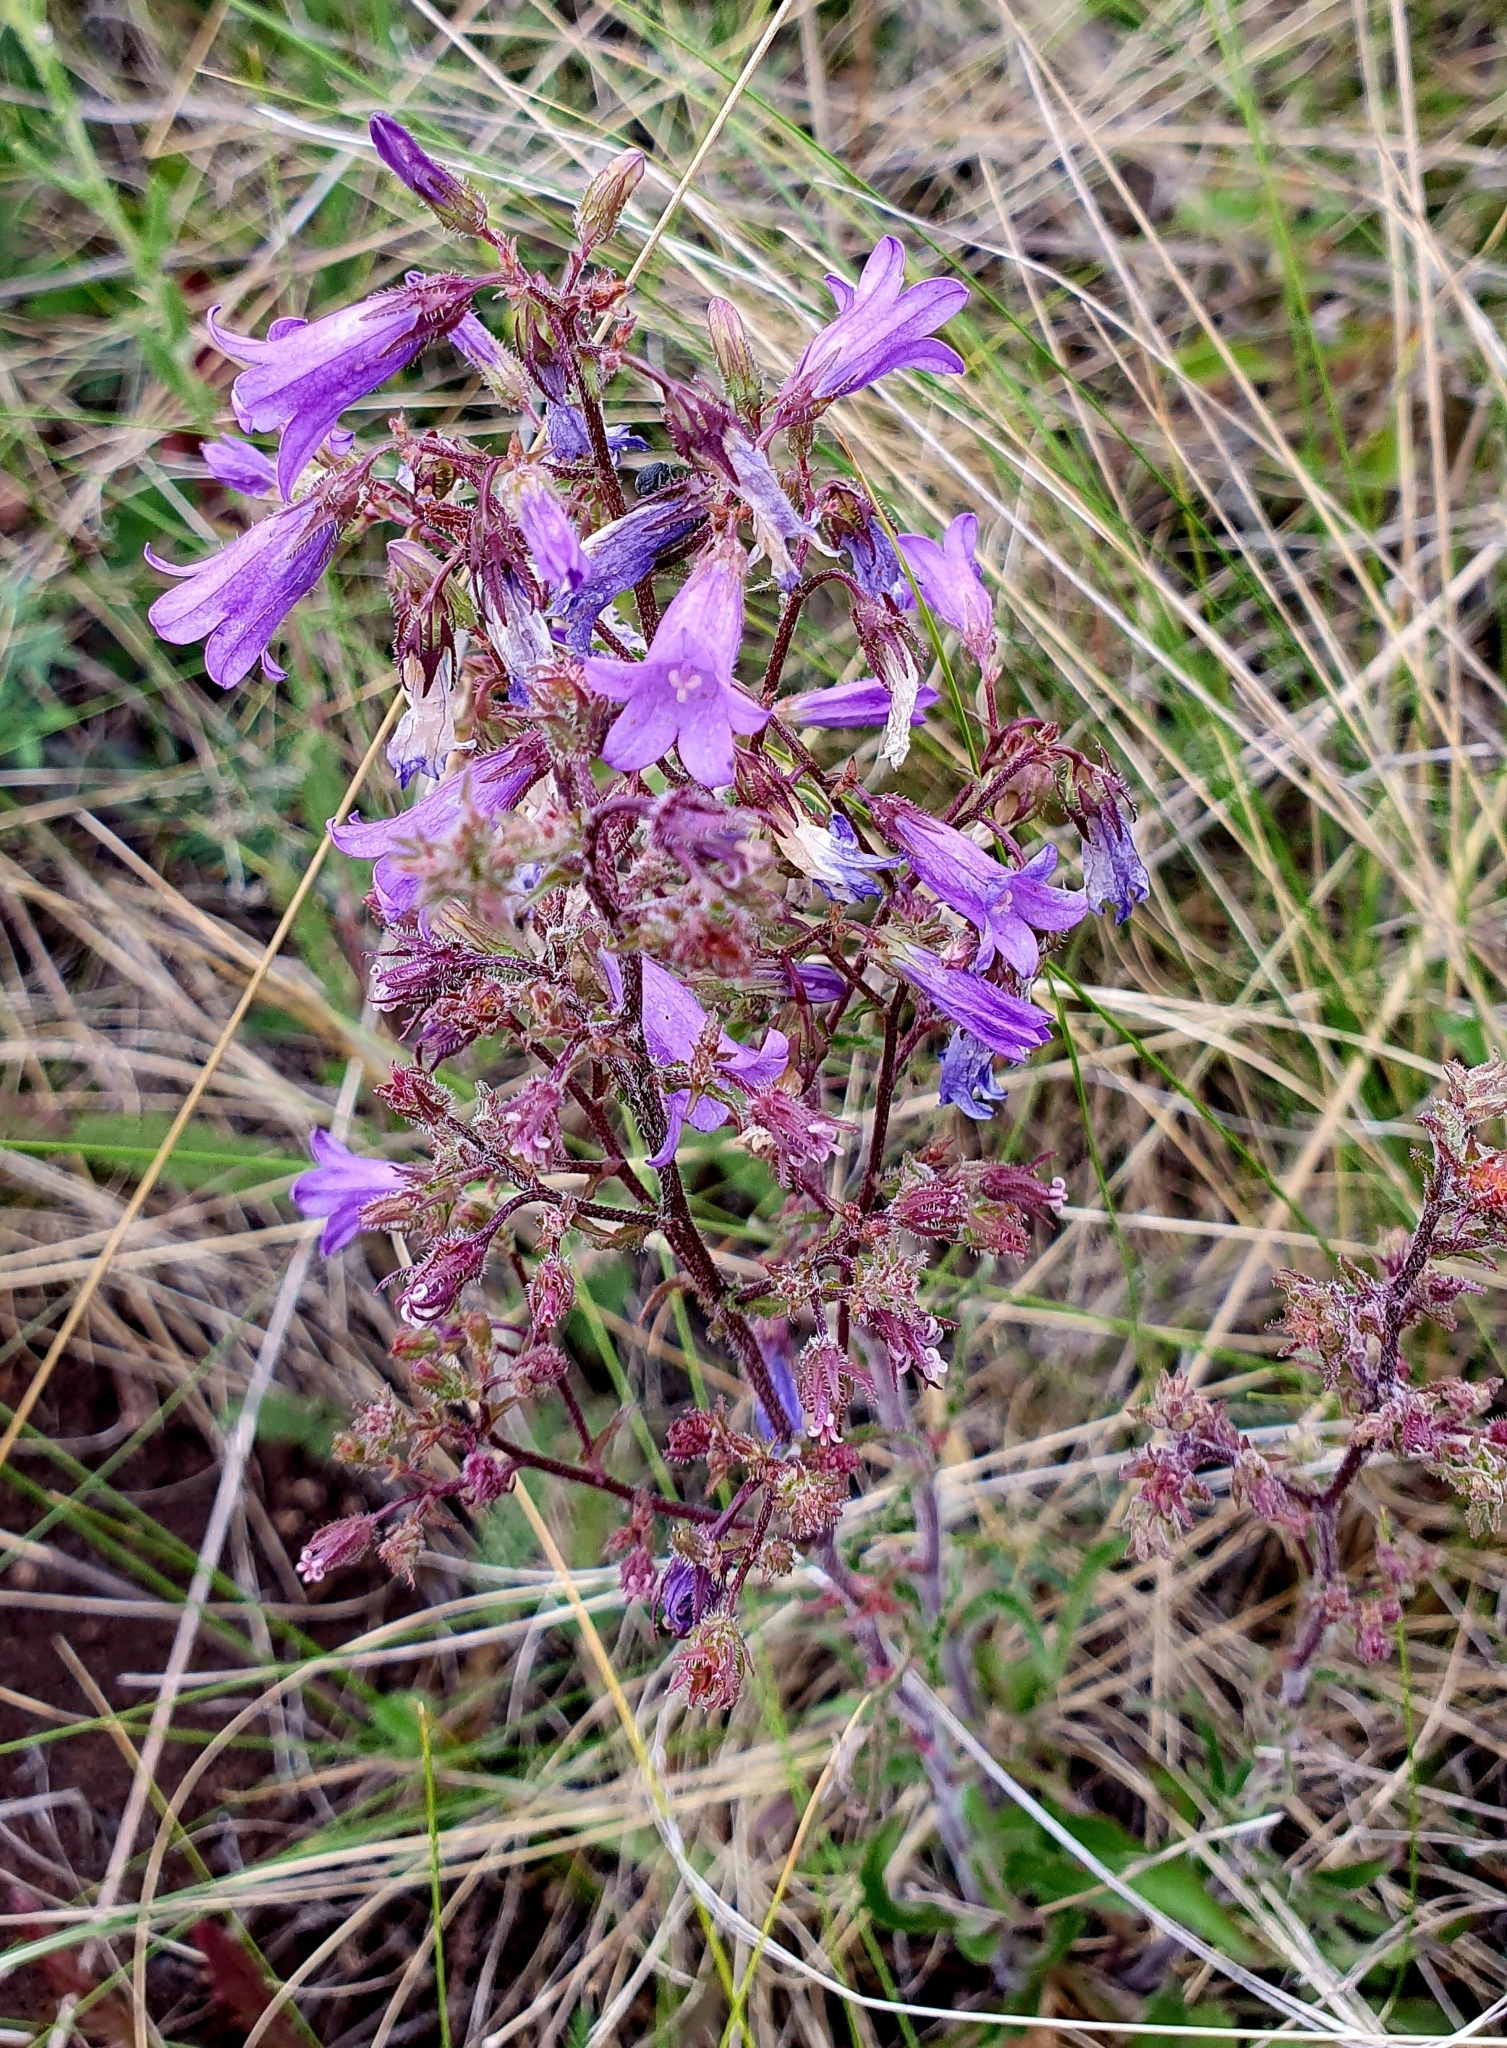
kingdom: Plantae
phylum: Tracheophyta
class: Magnoliopsida
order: Asterales
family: Campanulaceae
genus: Campanula
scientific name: Campanula sibirica
